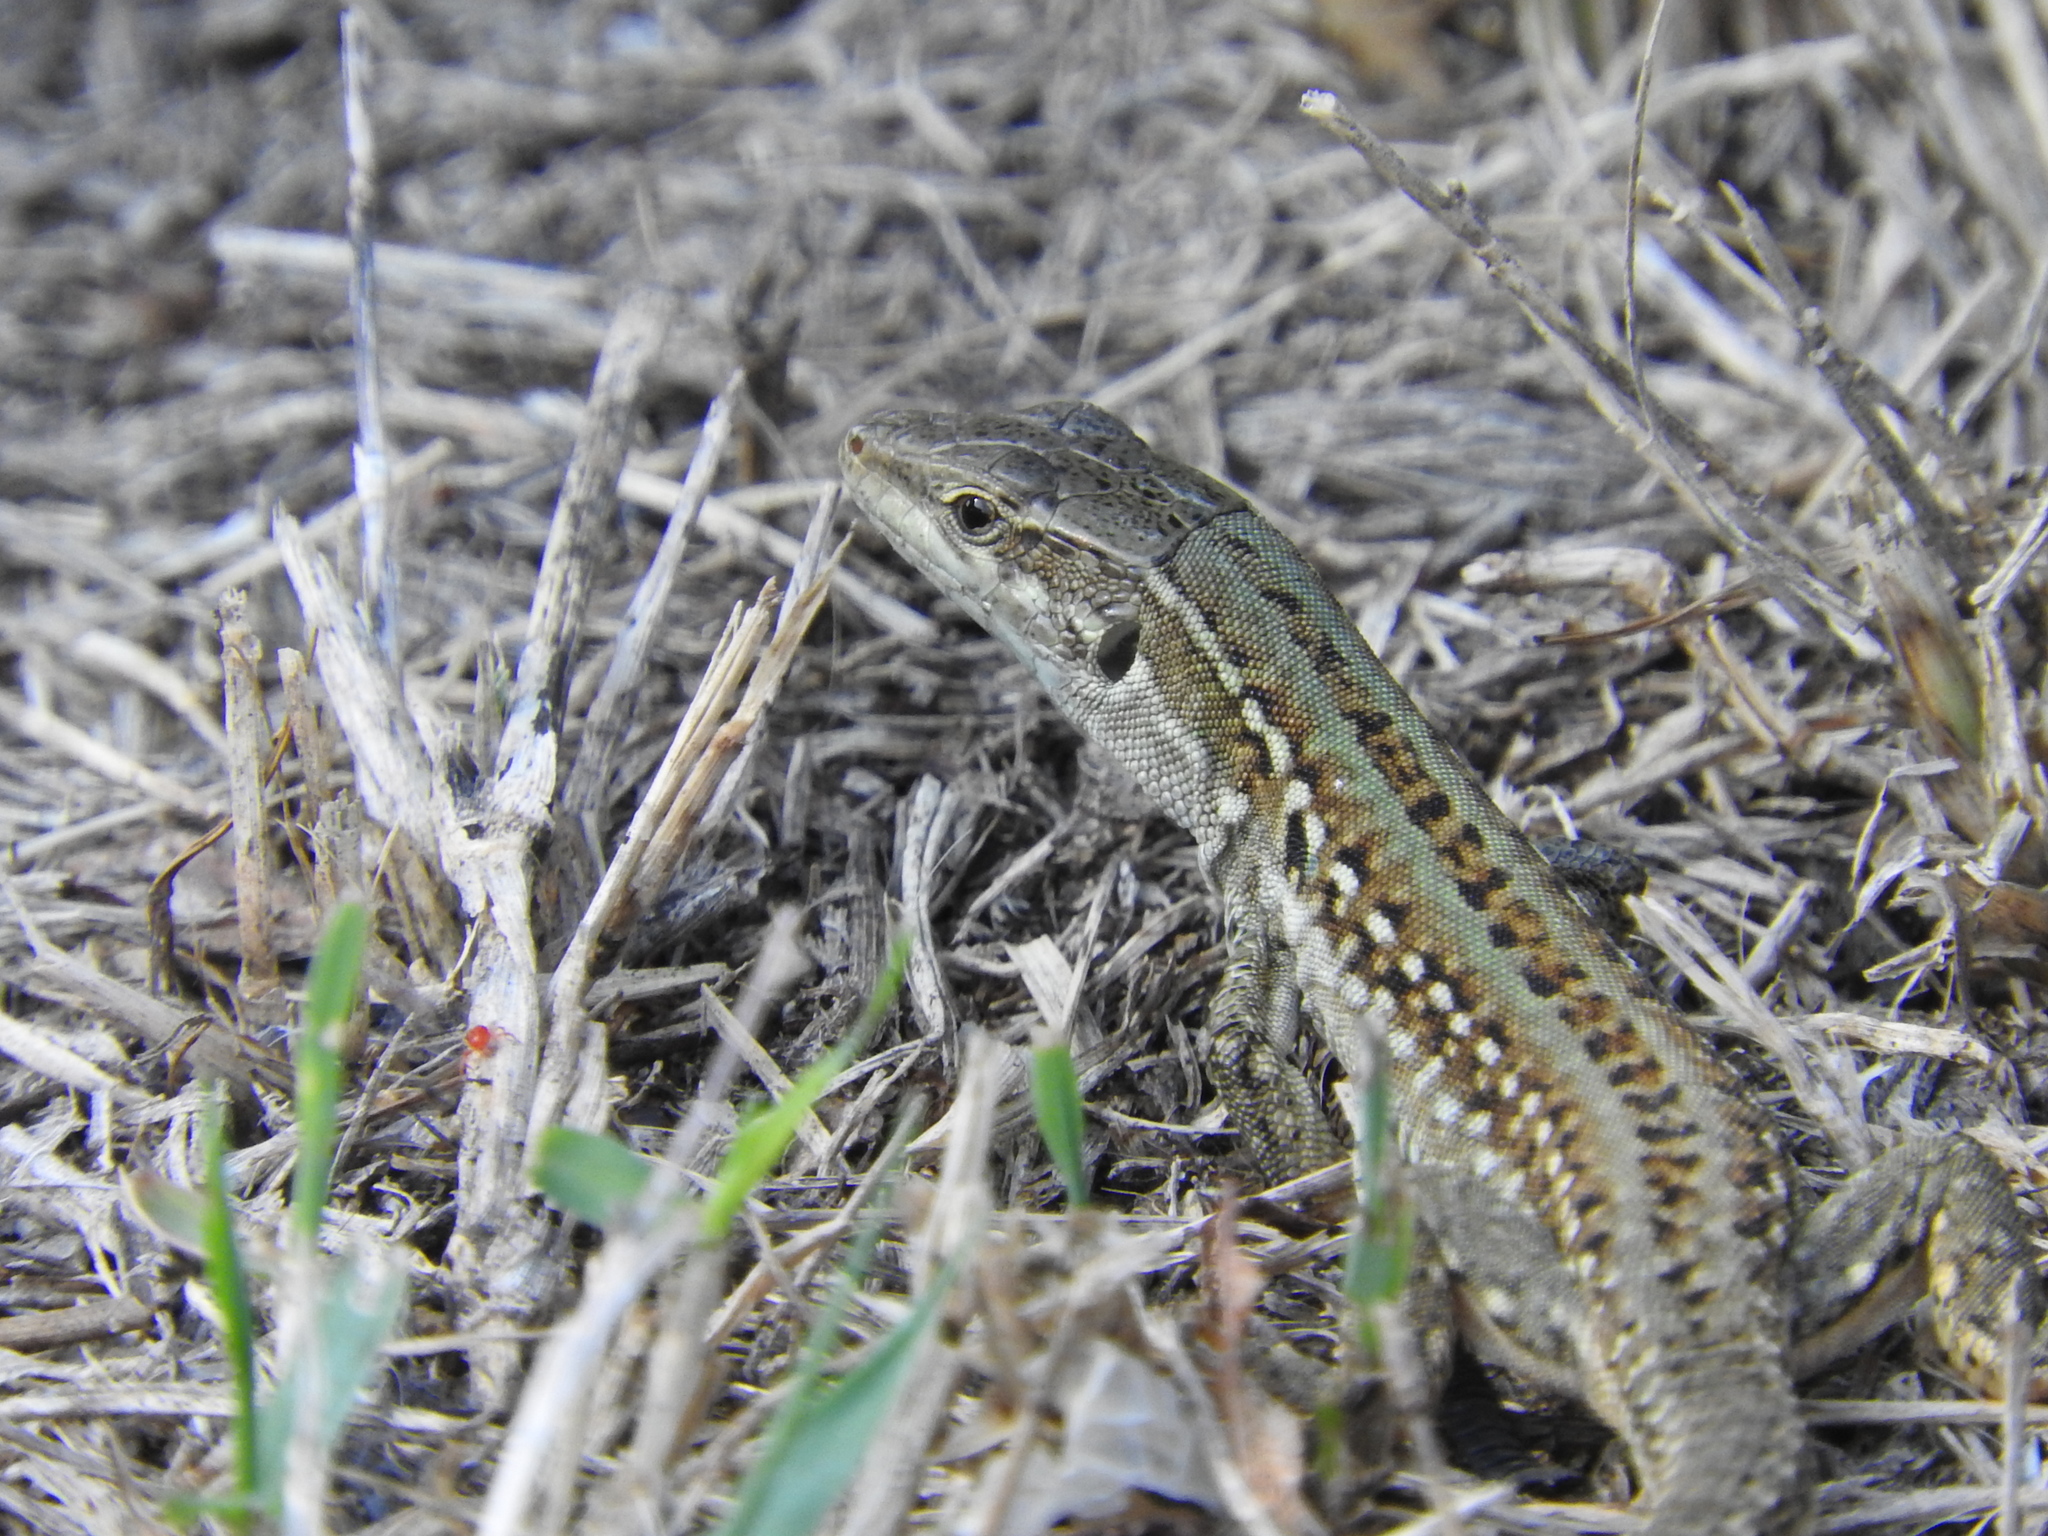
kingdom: Animalia
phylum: Chordata
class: Squamata
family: Lacertidae
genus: Podarcis
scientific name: Podarcis siculus
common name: Italian wall lizard
